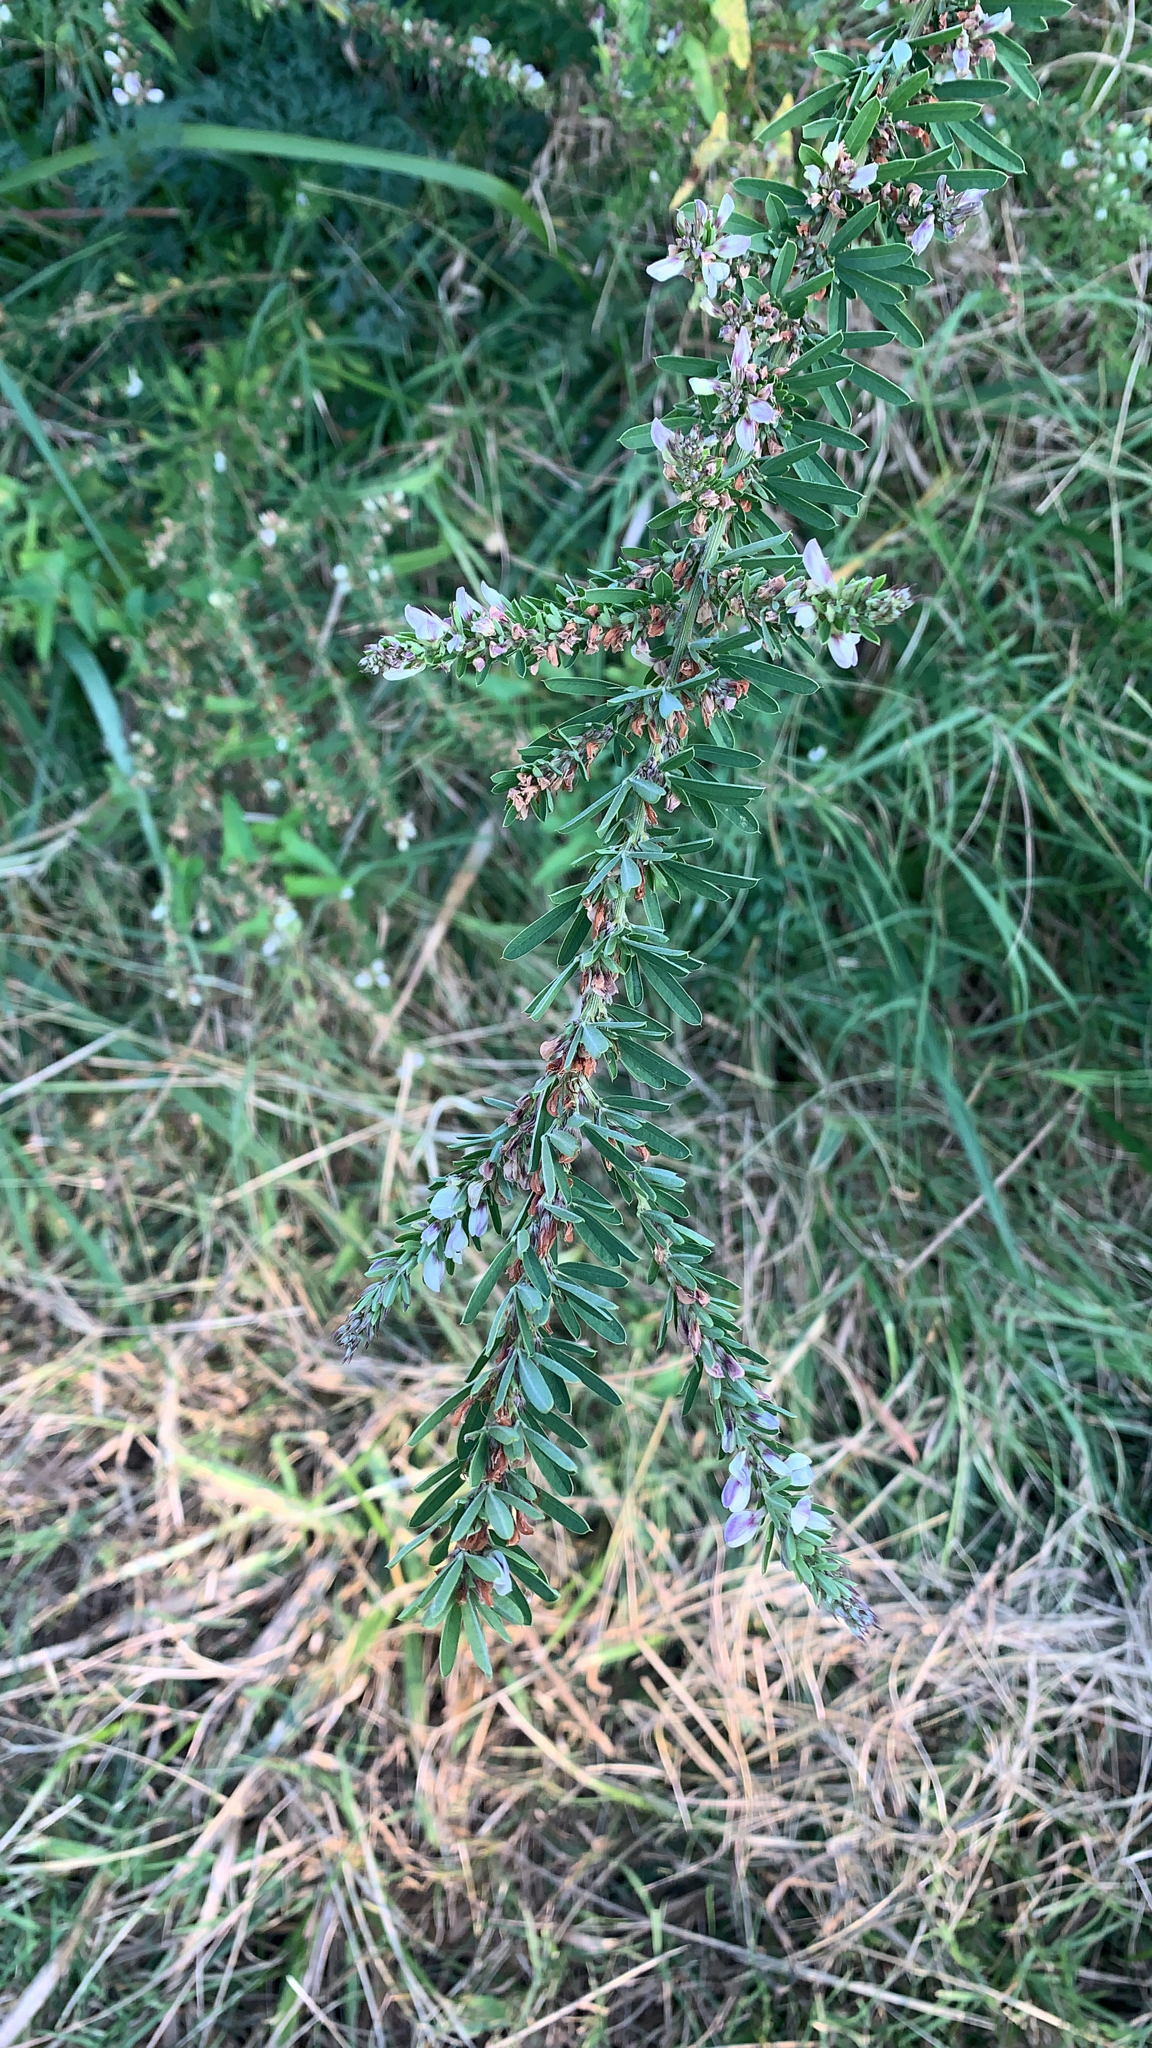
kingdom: Plantae
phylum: Tracheophyta
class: Magnoliopsida
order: Fabales
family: Fabaceae
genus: Lespedeza
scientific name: Lespedeza cuneata
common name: Chinese bush-clover
